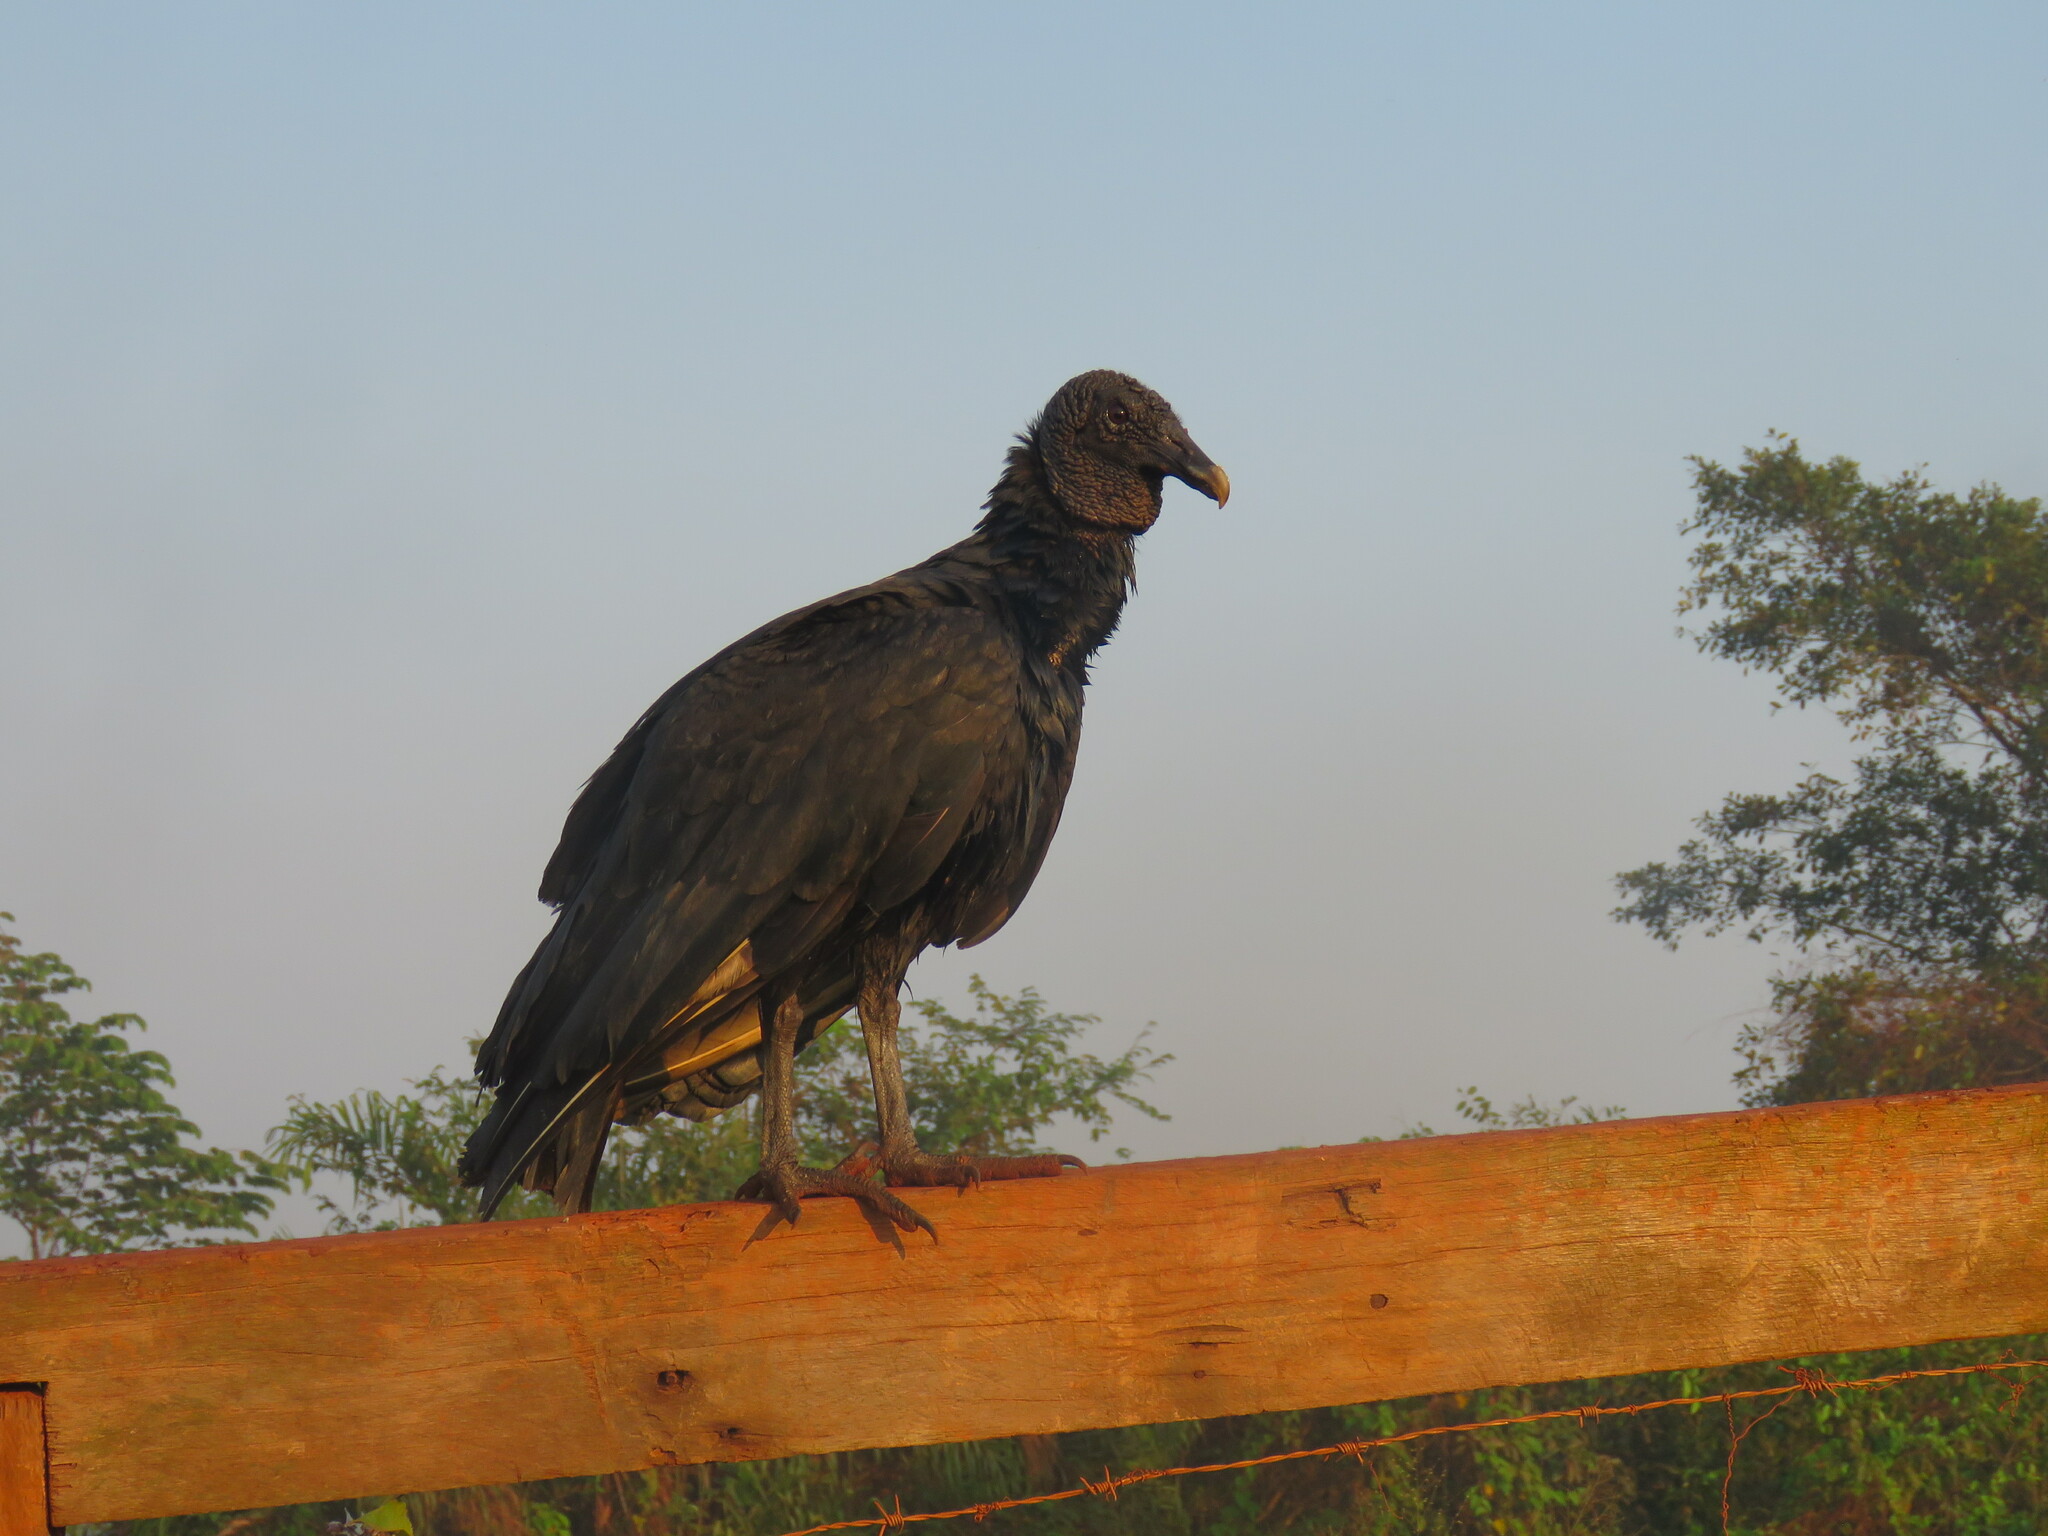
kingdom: Animalia
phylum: Chordata
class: Aves
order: Accipitriformes
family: Cathartidae
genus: Coragyps
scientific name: Coragyps atratus
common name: Black vulture
